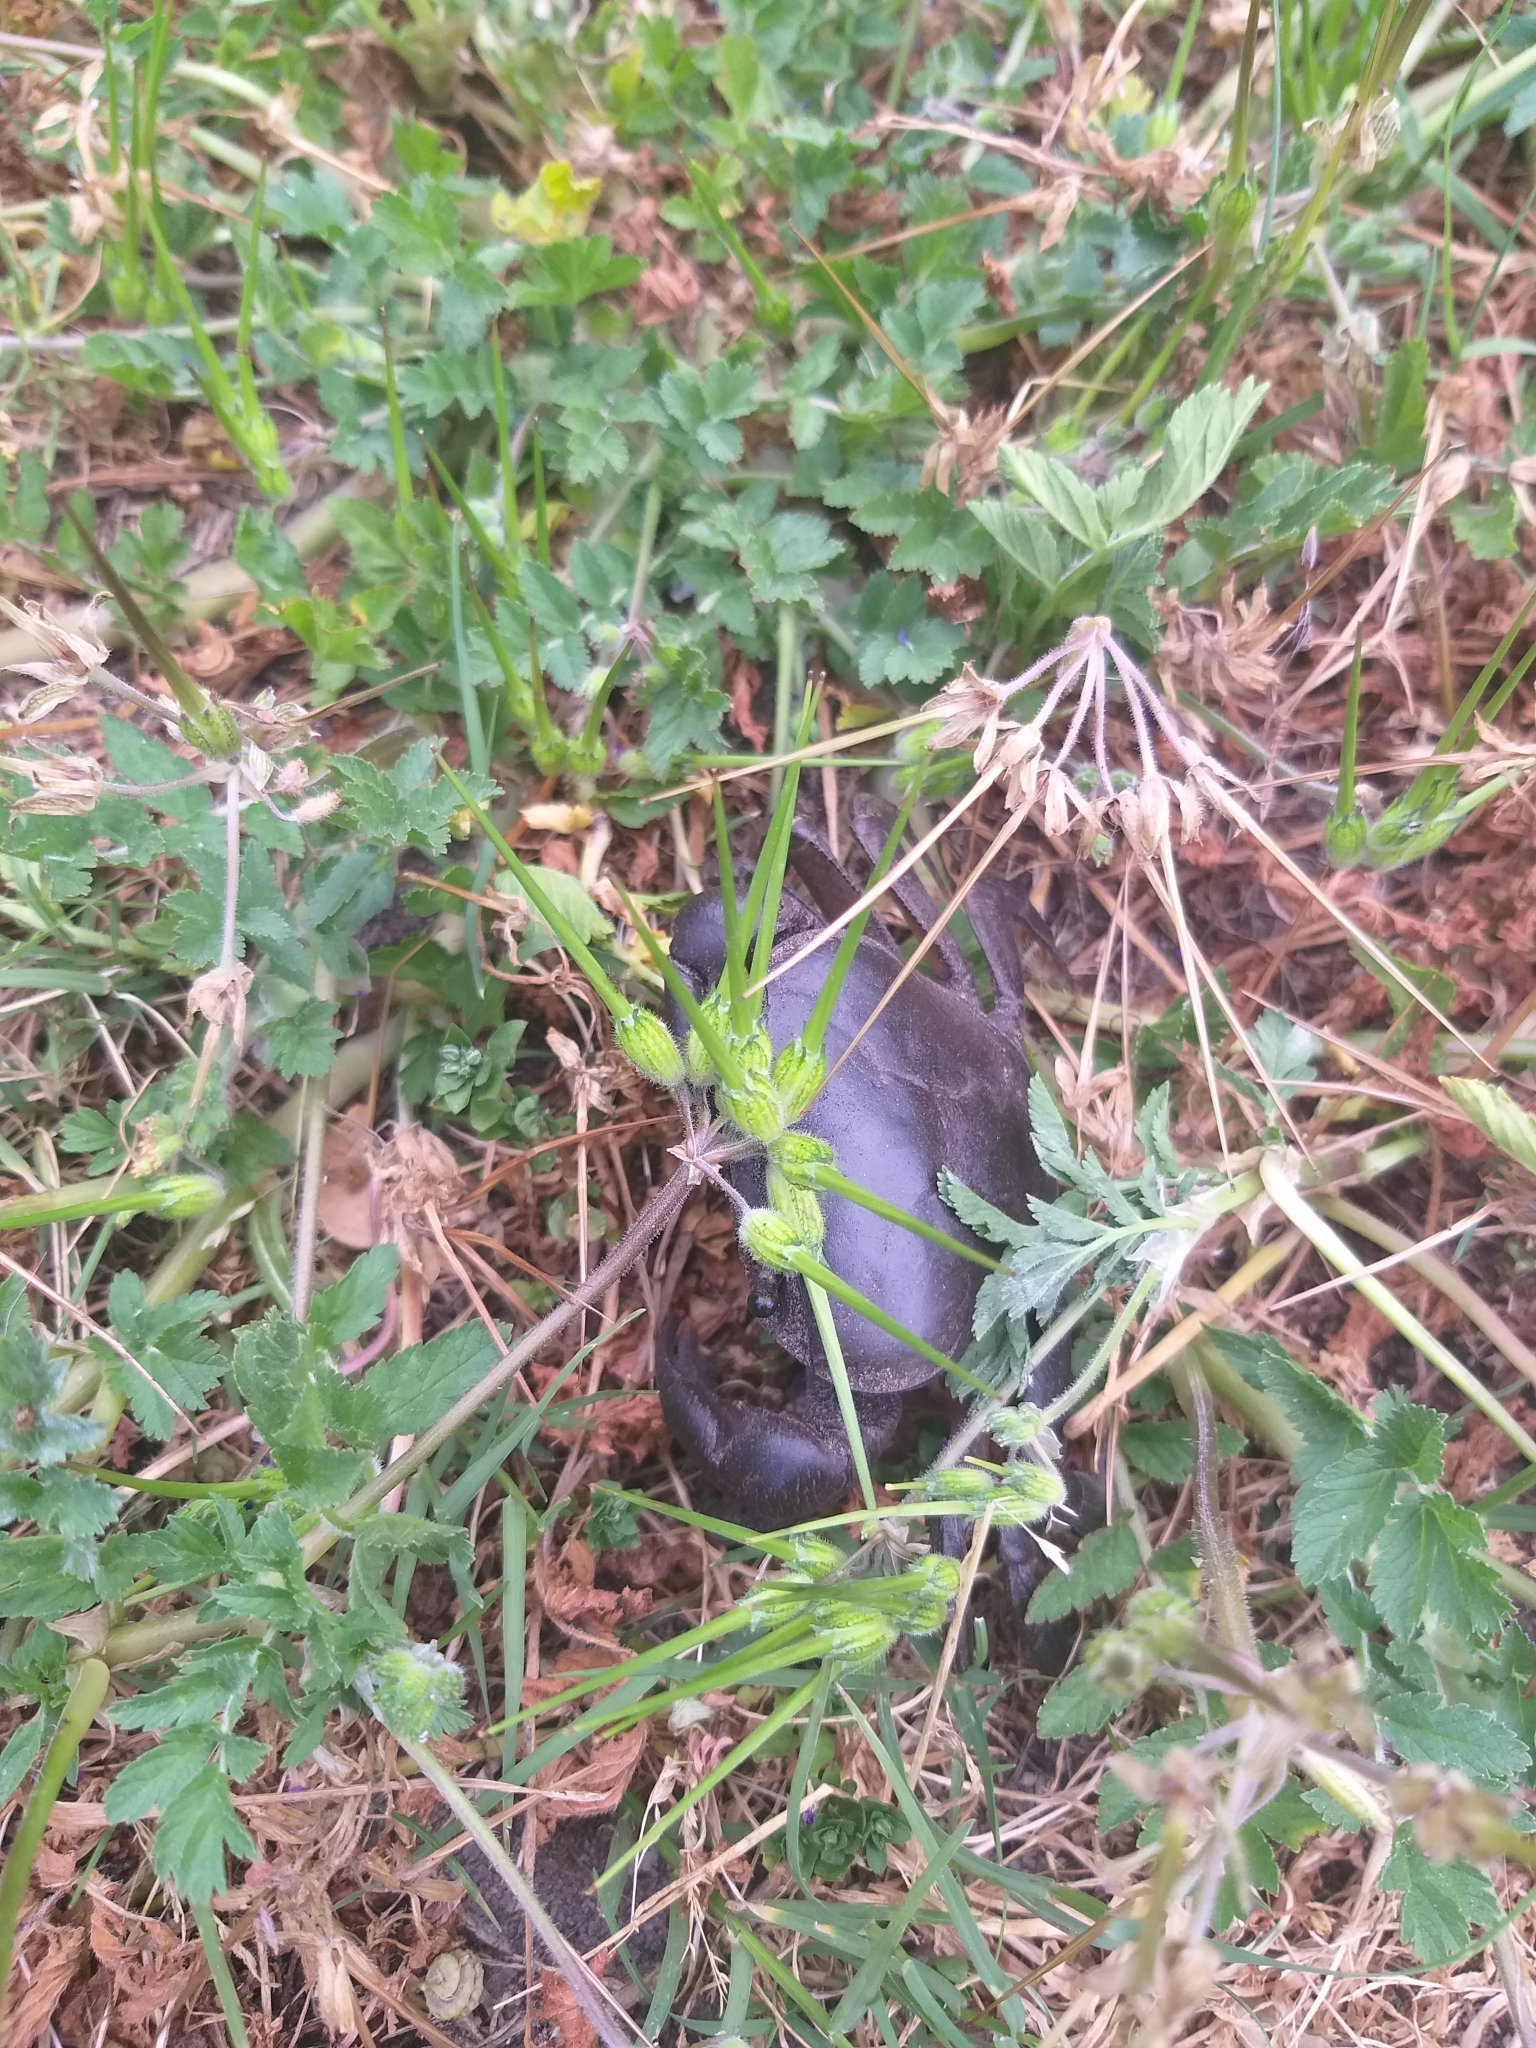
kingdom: Animalia
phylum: Arthropoda
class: Malacostraca
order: Decapoda
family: Potamonautidae
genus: Potamonautes
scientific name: Potamonautes perlatus
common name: Cape river crab
